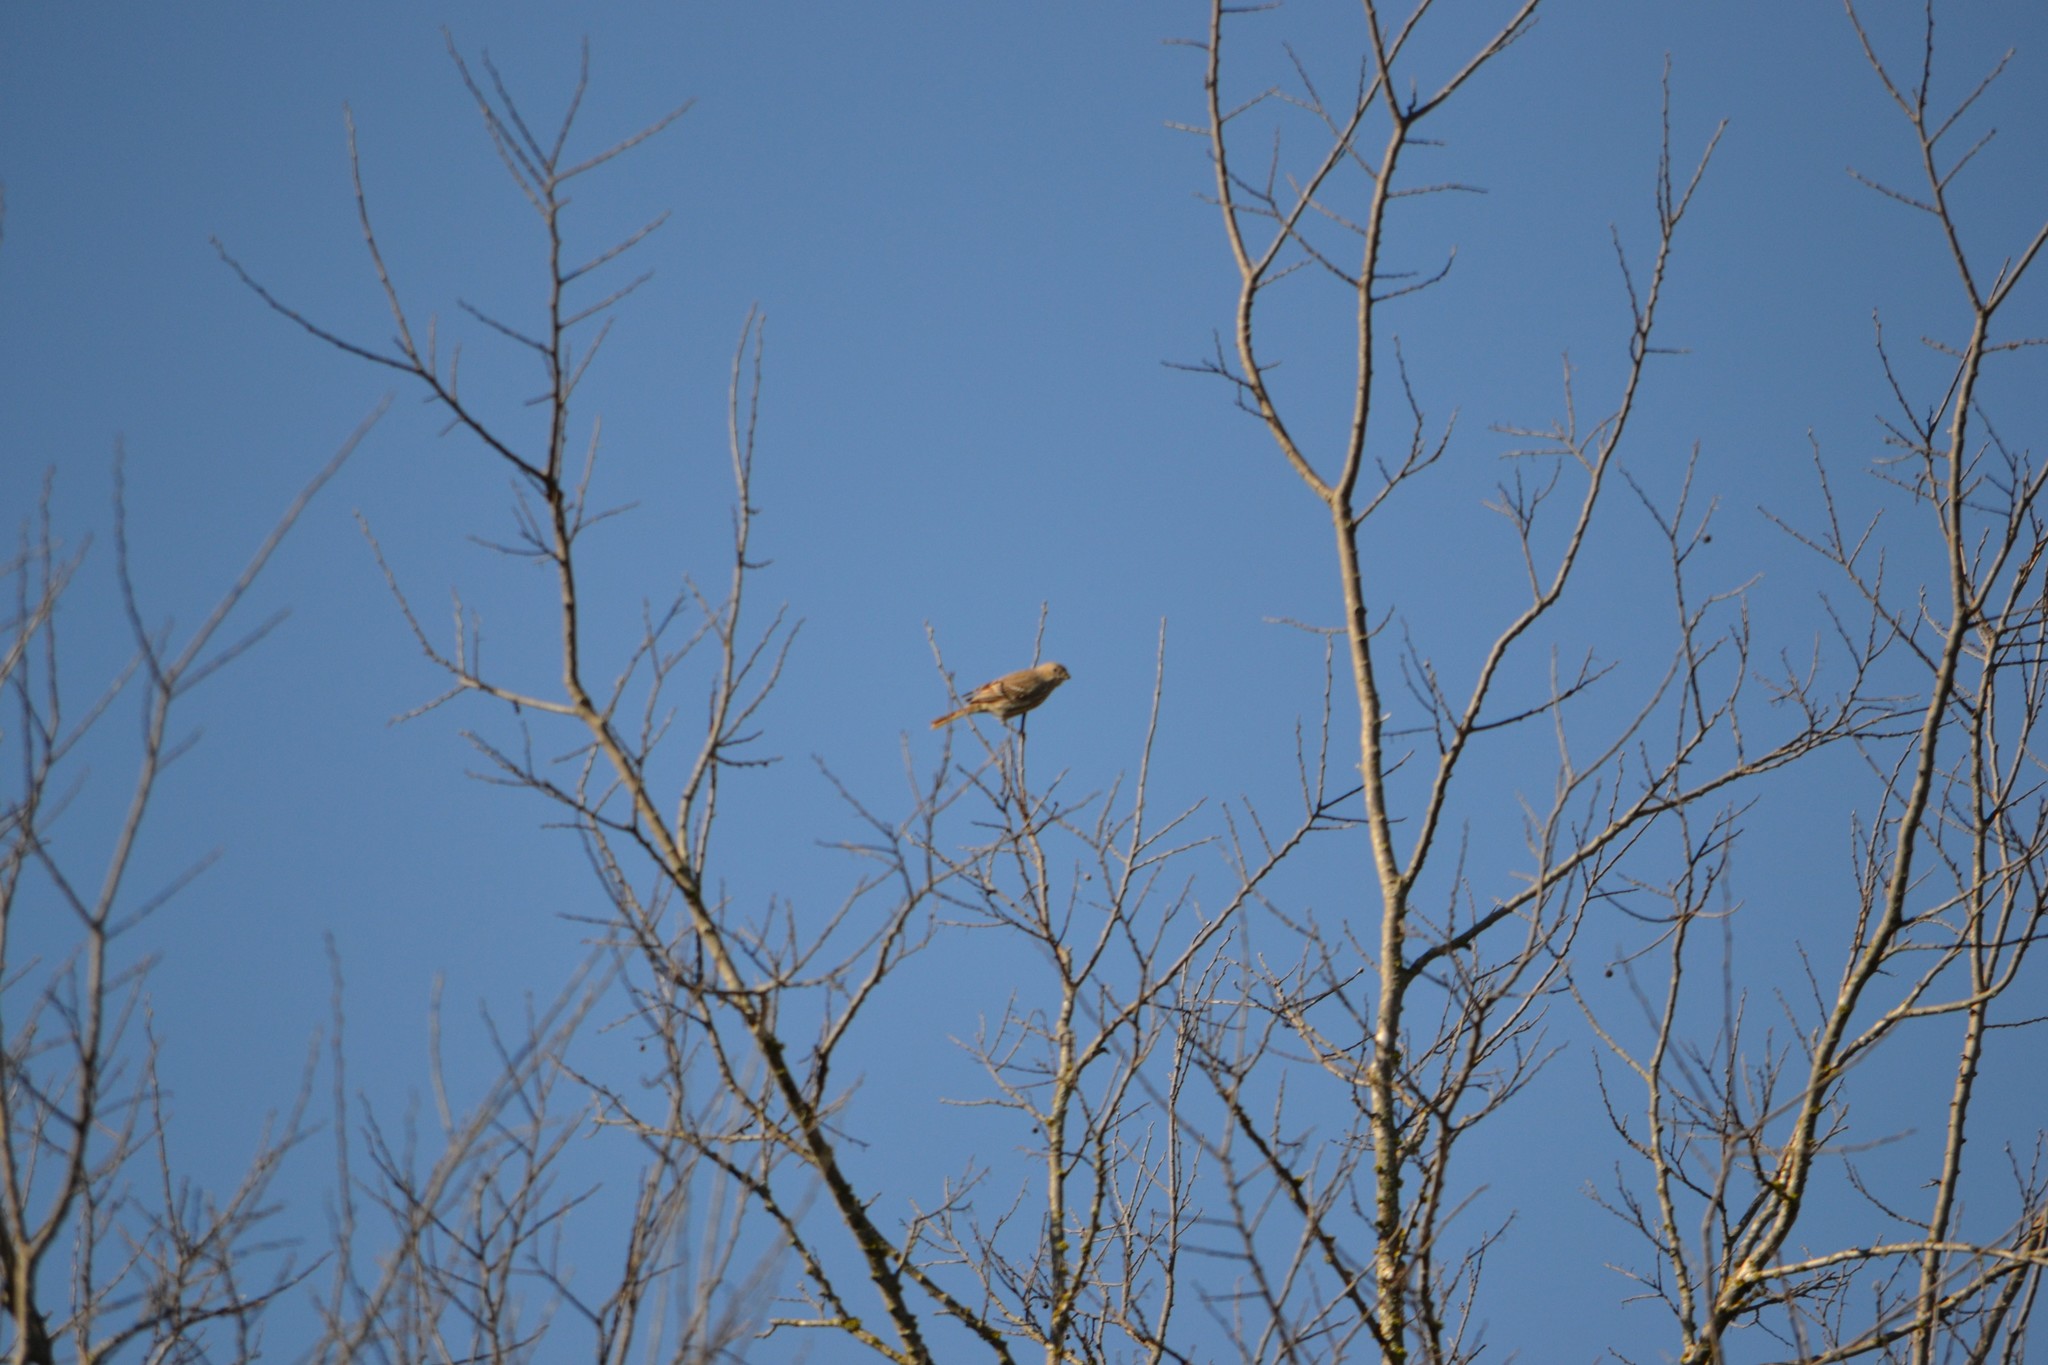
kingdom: Animalia
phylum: Chordata
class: Aves
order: Passeriformes
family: Fringillidae
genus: Haemorhous
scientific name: Haemorhous mexicanus
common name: House finch
